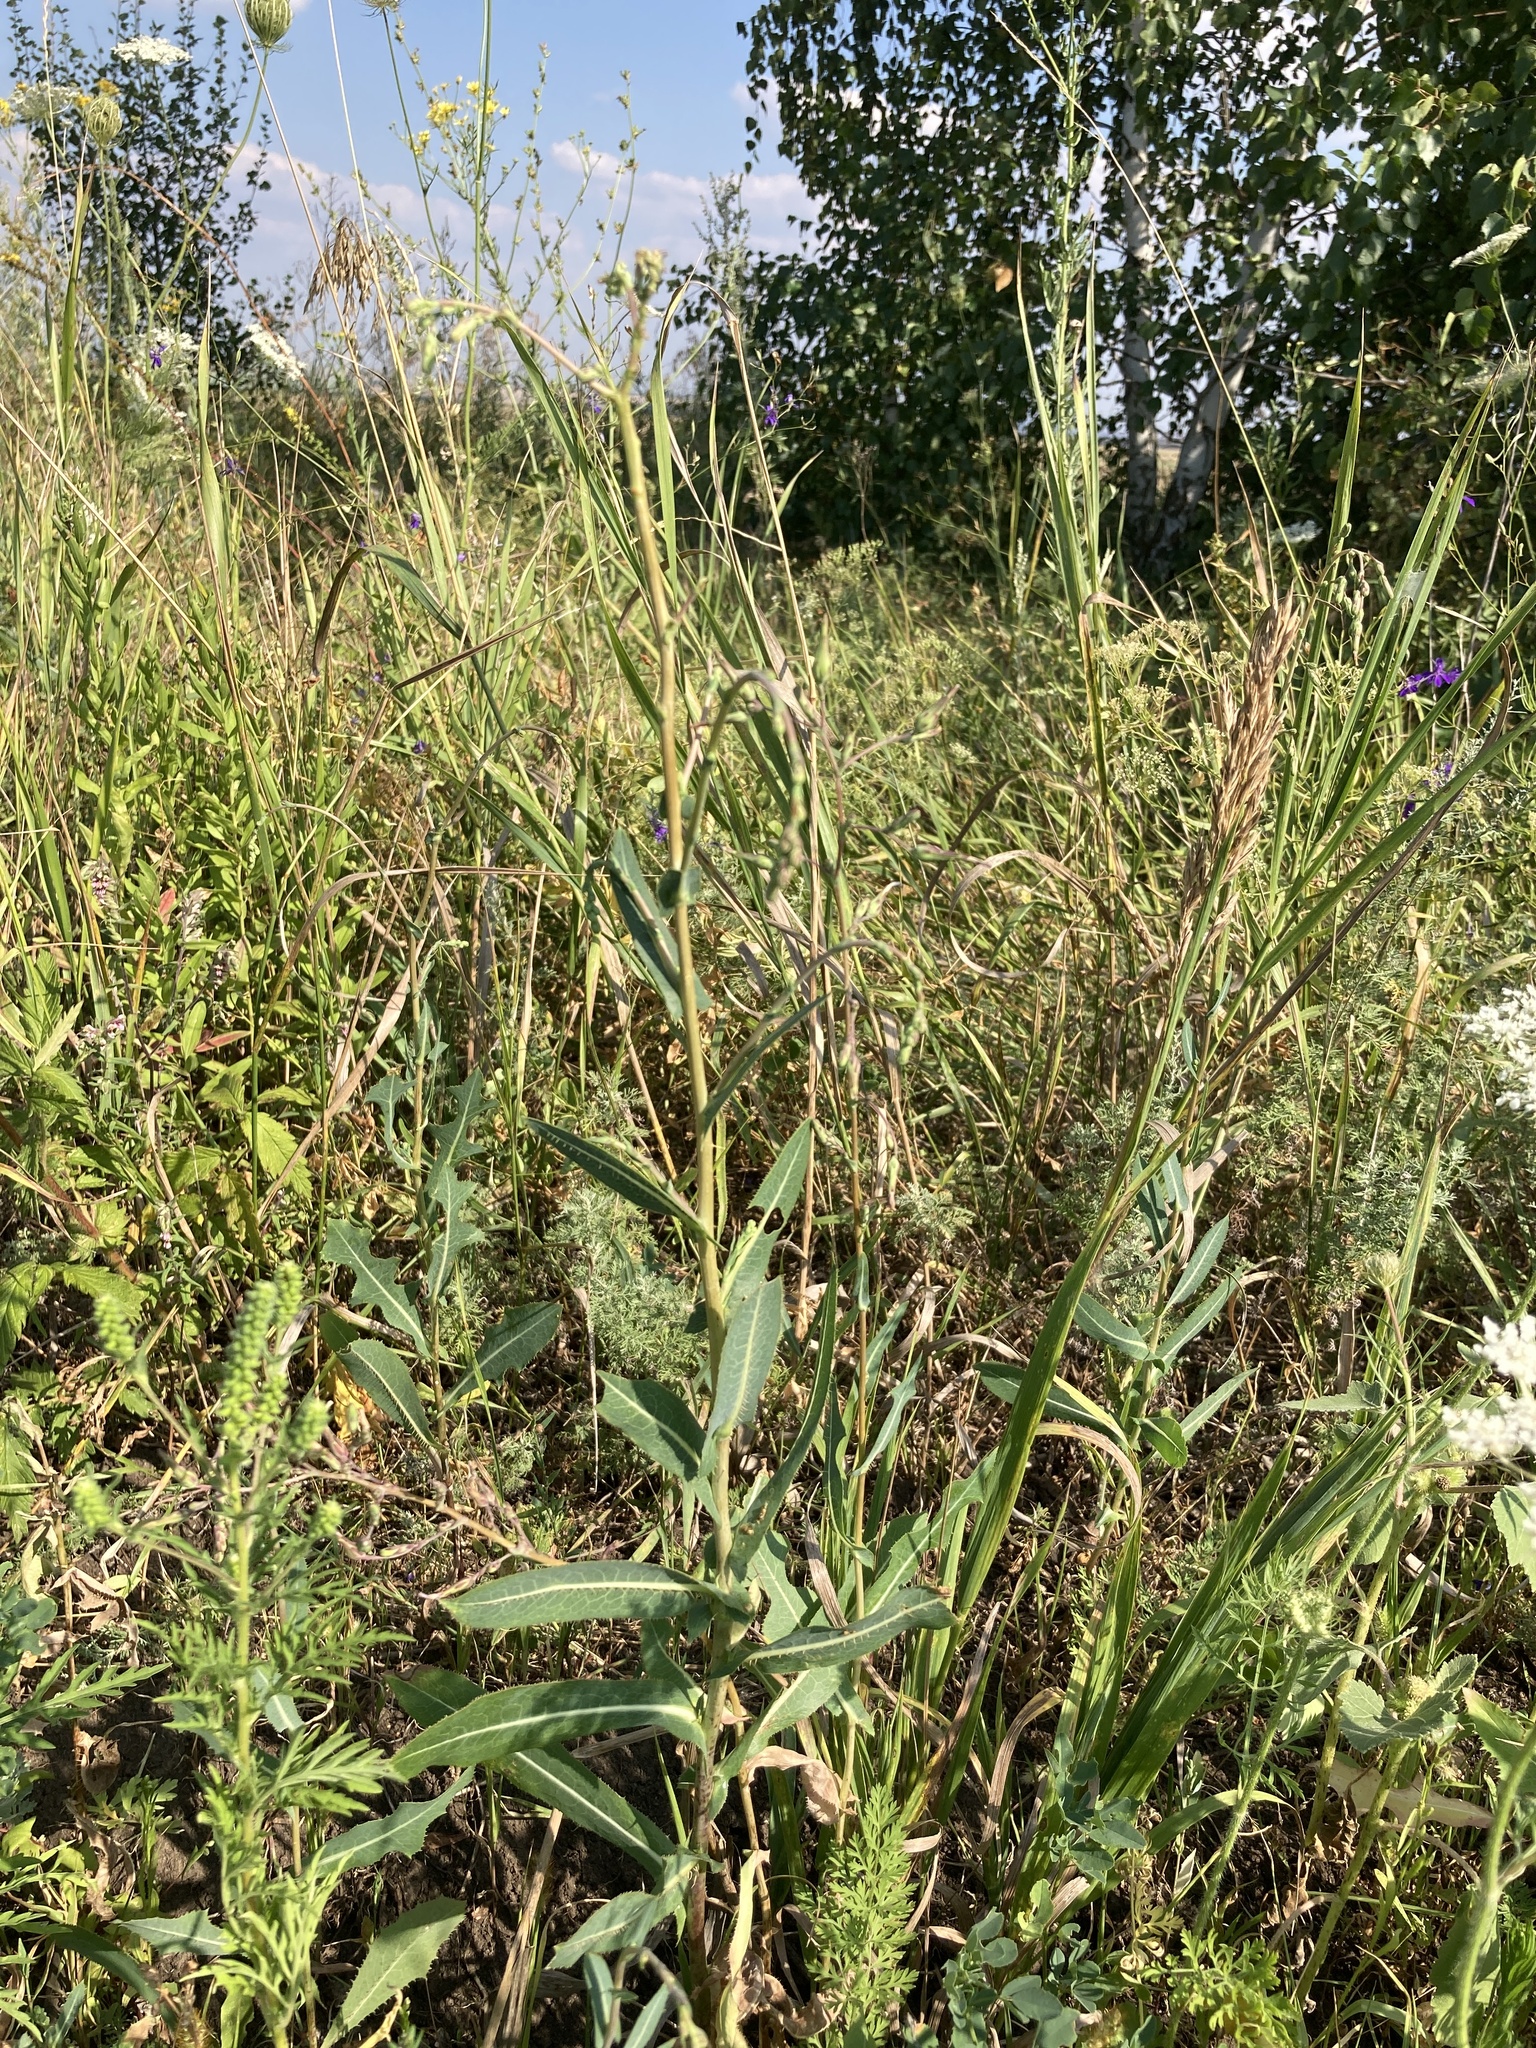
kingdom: Plantae
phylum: Tracheophyta
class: Magnoliopsida
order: Asterales
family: Asteraceae
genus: Lactuca
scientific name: Lactuca serriola
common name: Prickly lettuce
